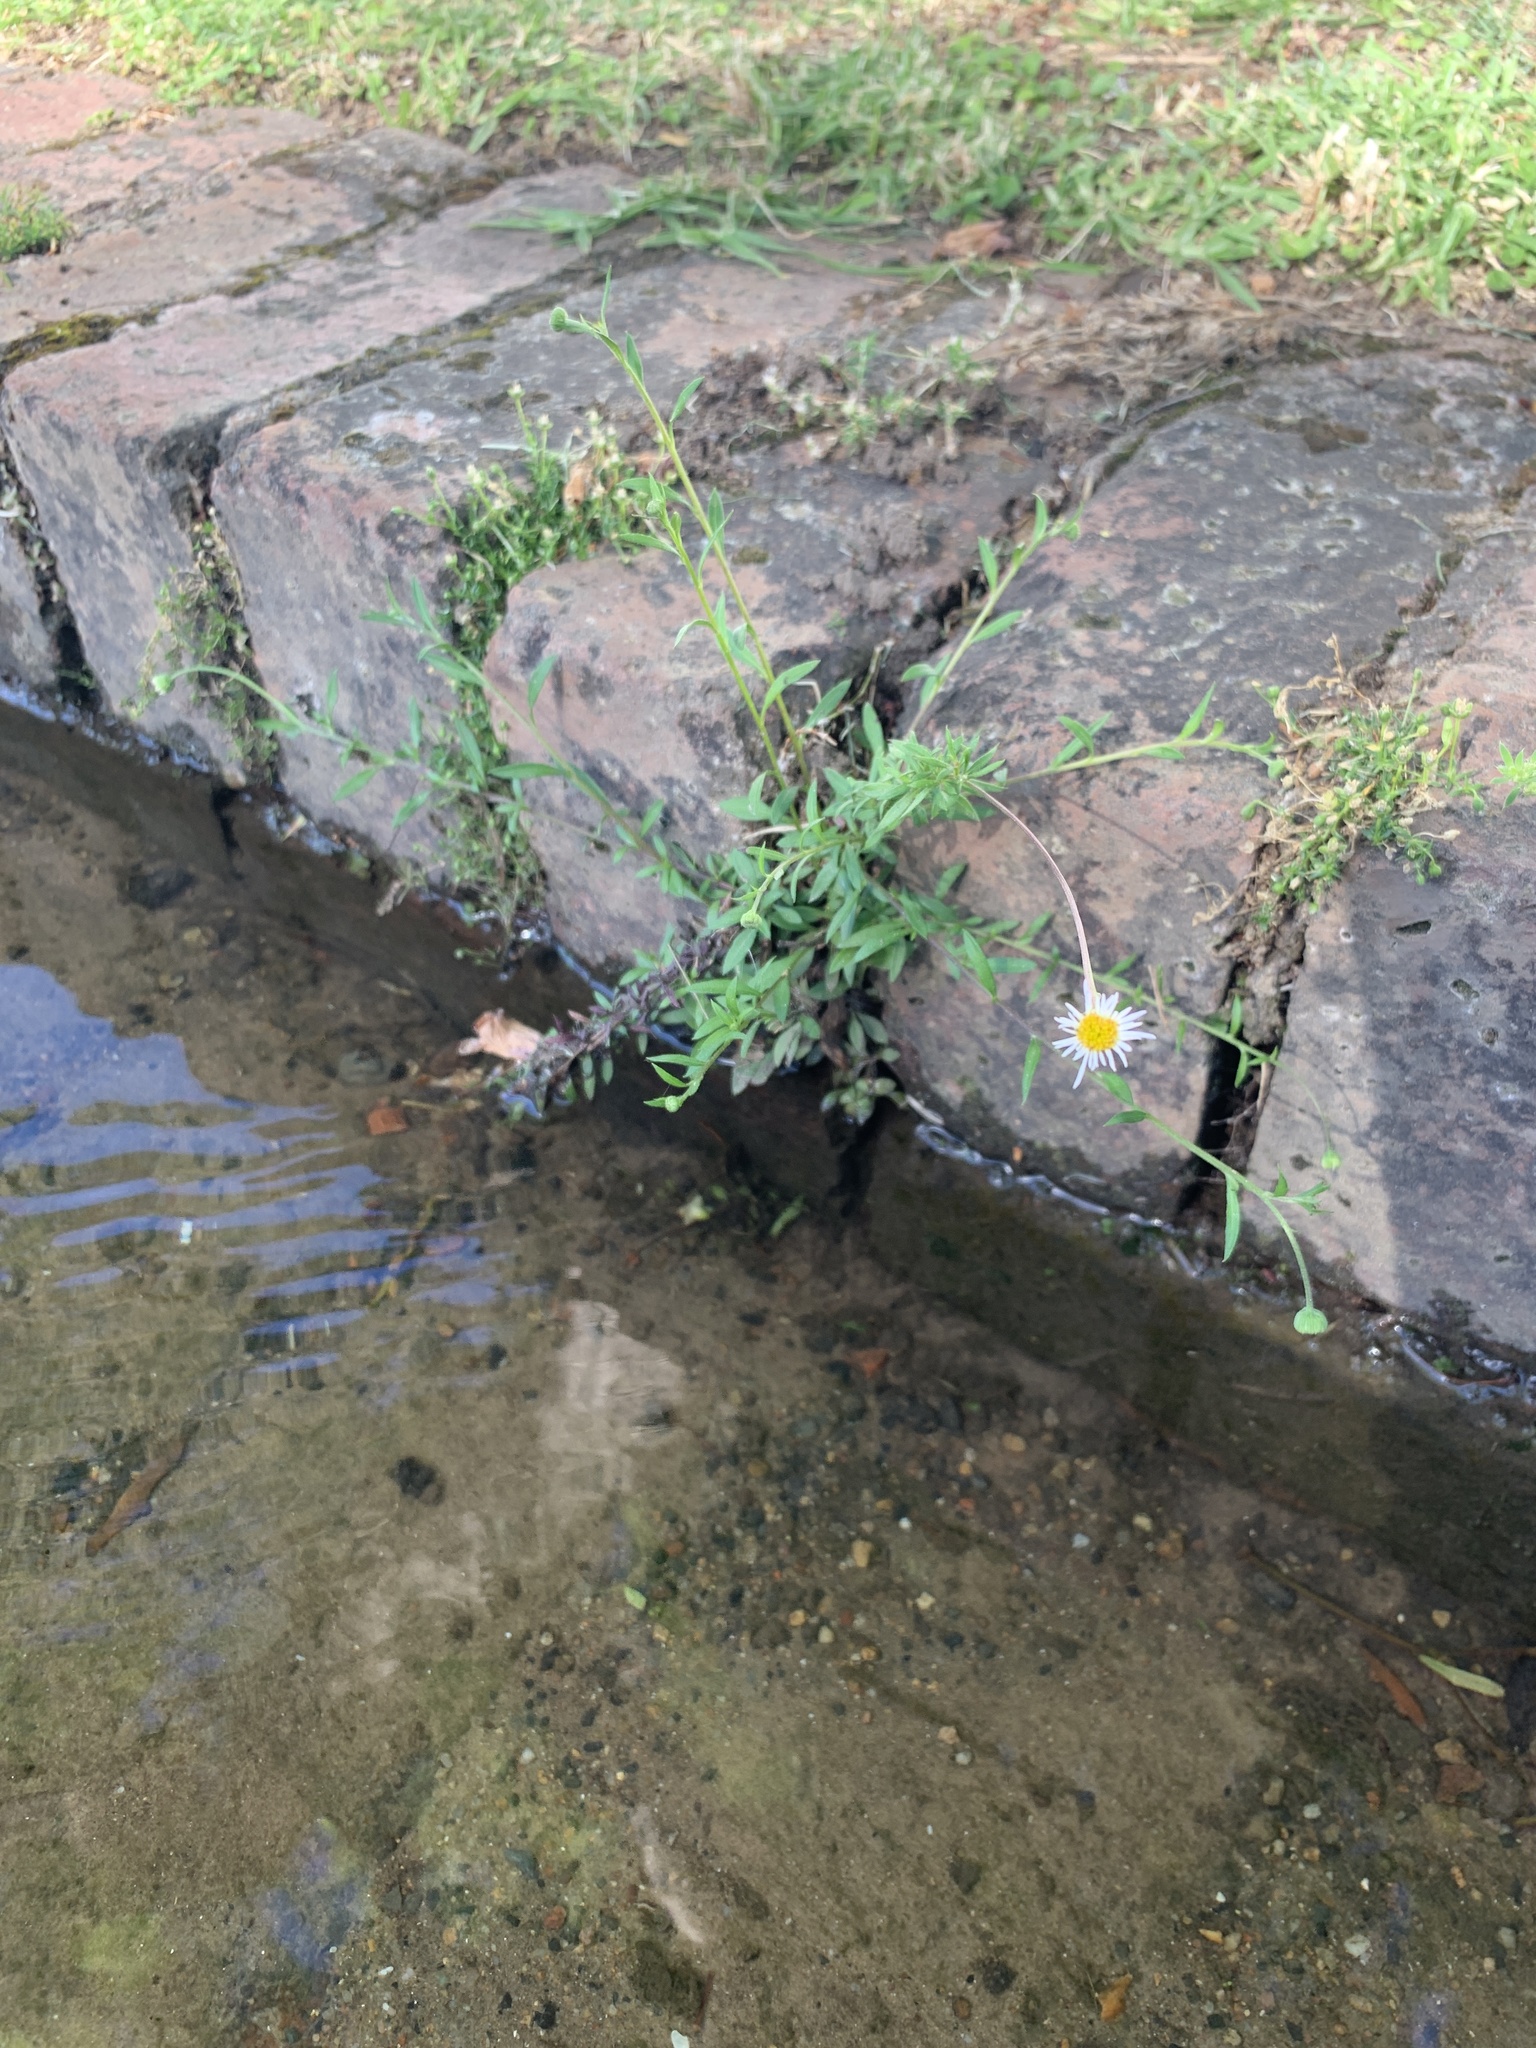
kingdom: Plantae
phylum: Tracheophyta
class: Magnoliopsida
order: Asterales
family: Asteraceae
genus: Erigeron
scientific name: Erigeron karvinskianus
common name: Mexican fleabane
